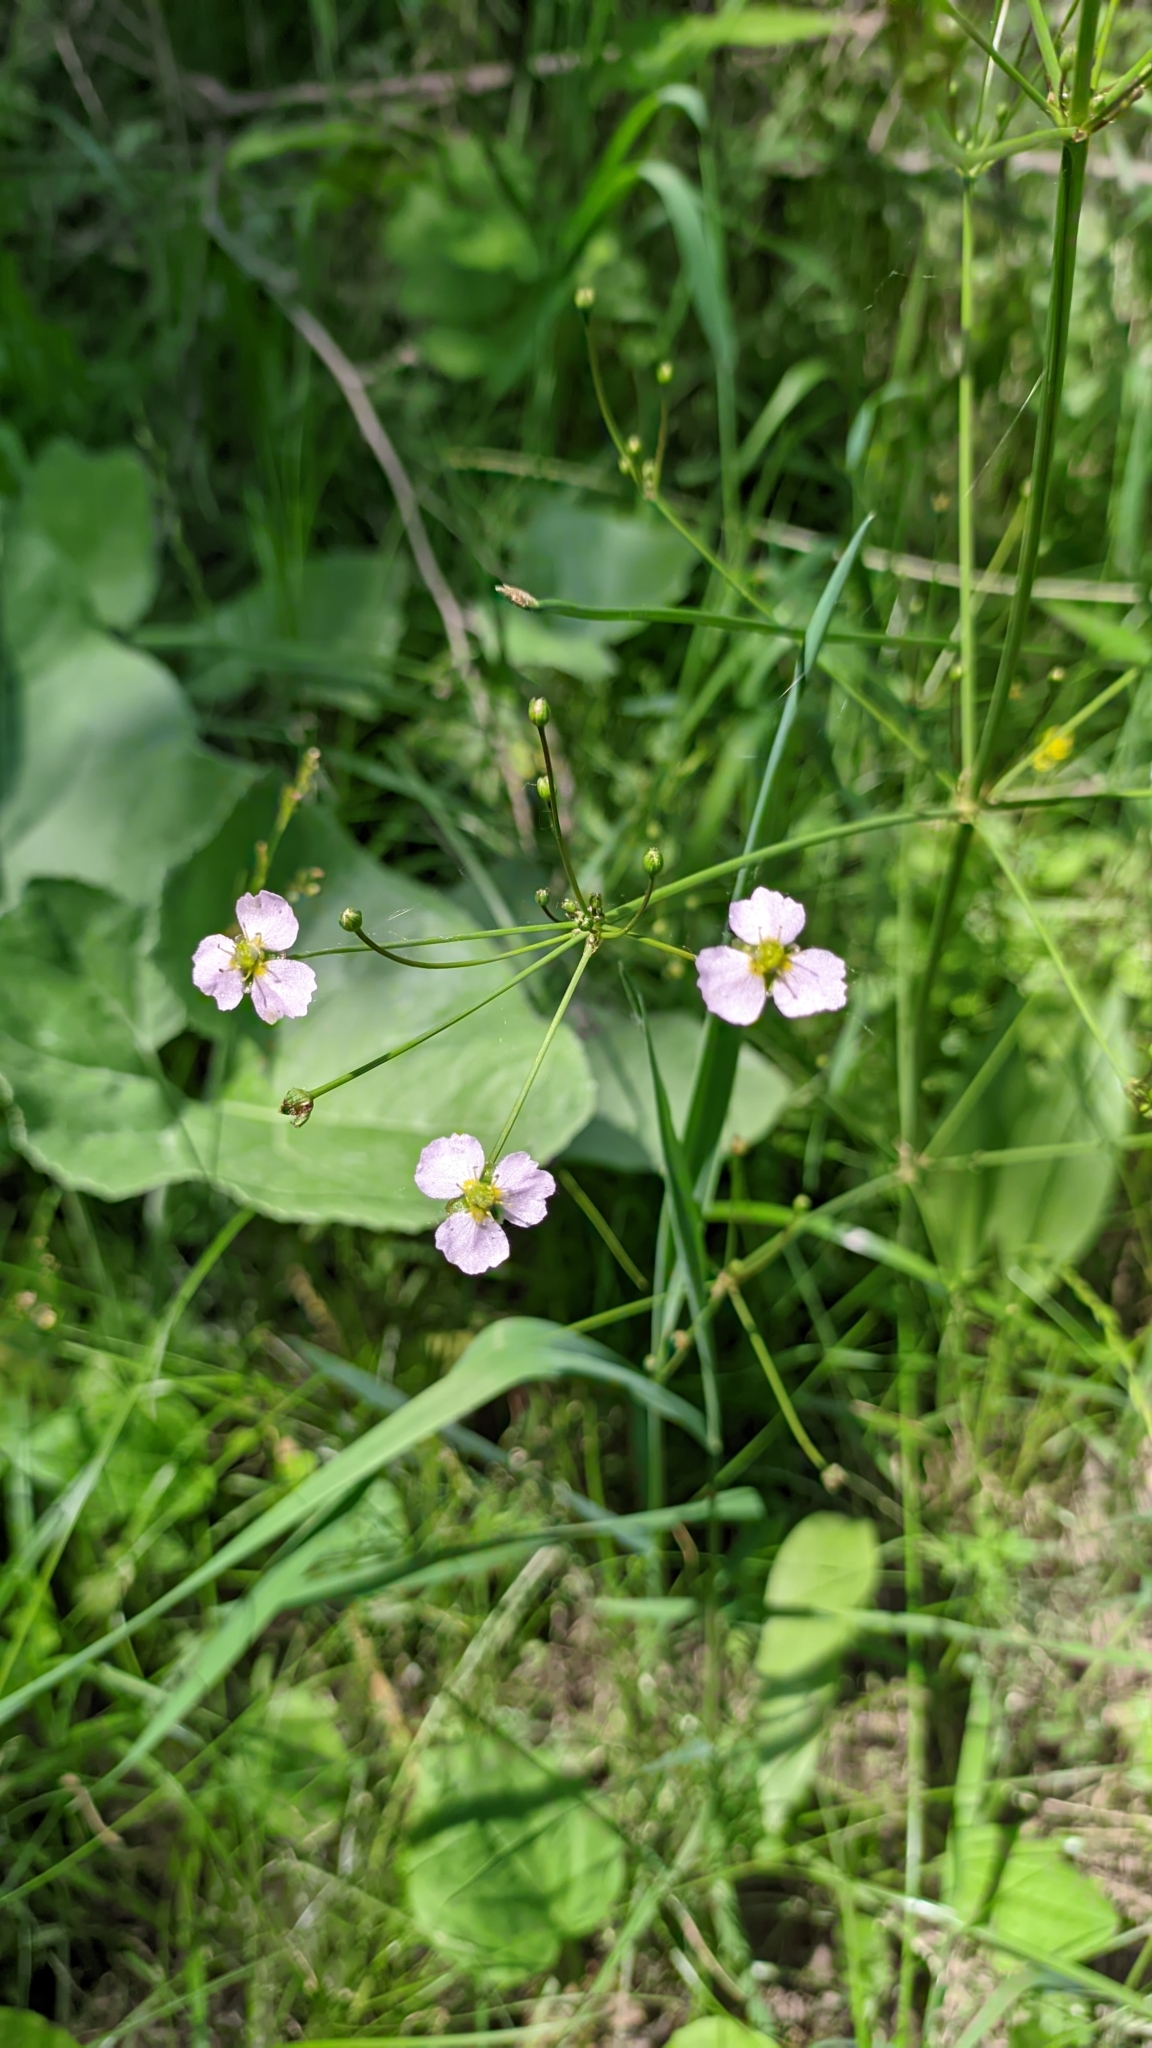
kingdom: Plantae
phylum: Tracheophyta
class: Liliopsida
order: Alismatales
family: Alismataceae
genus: Alisma
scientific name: Alisma lanceolatum
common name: Narrow-leaved water-plantain
